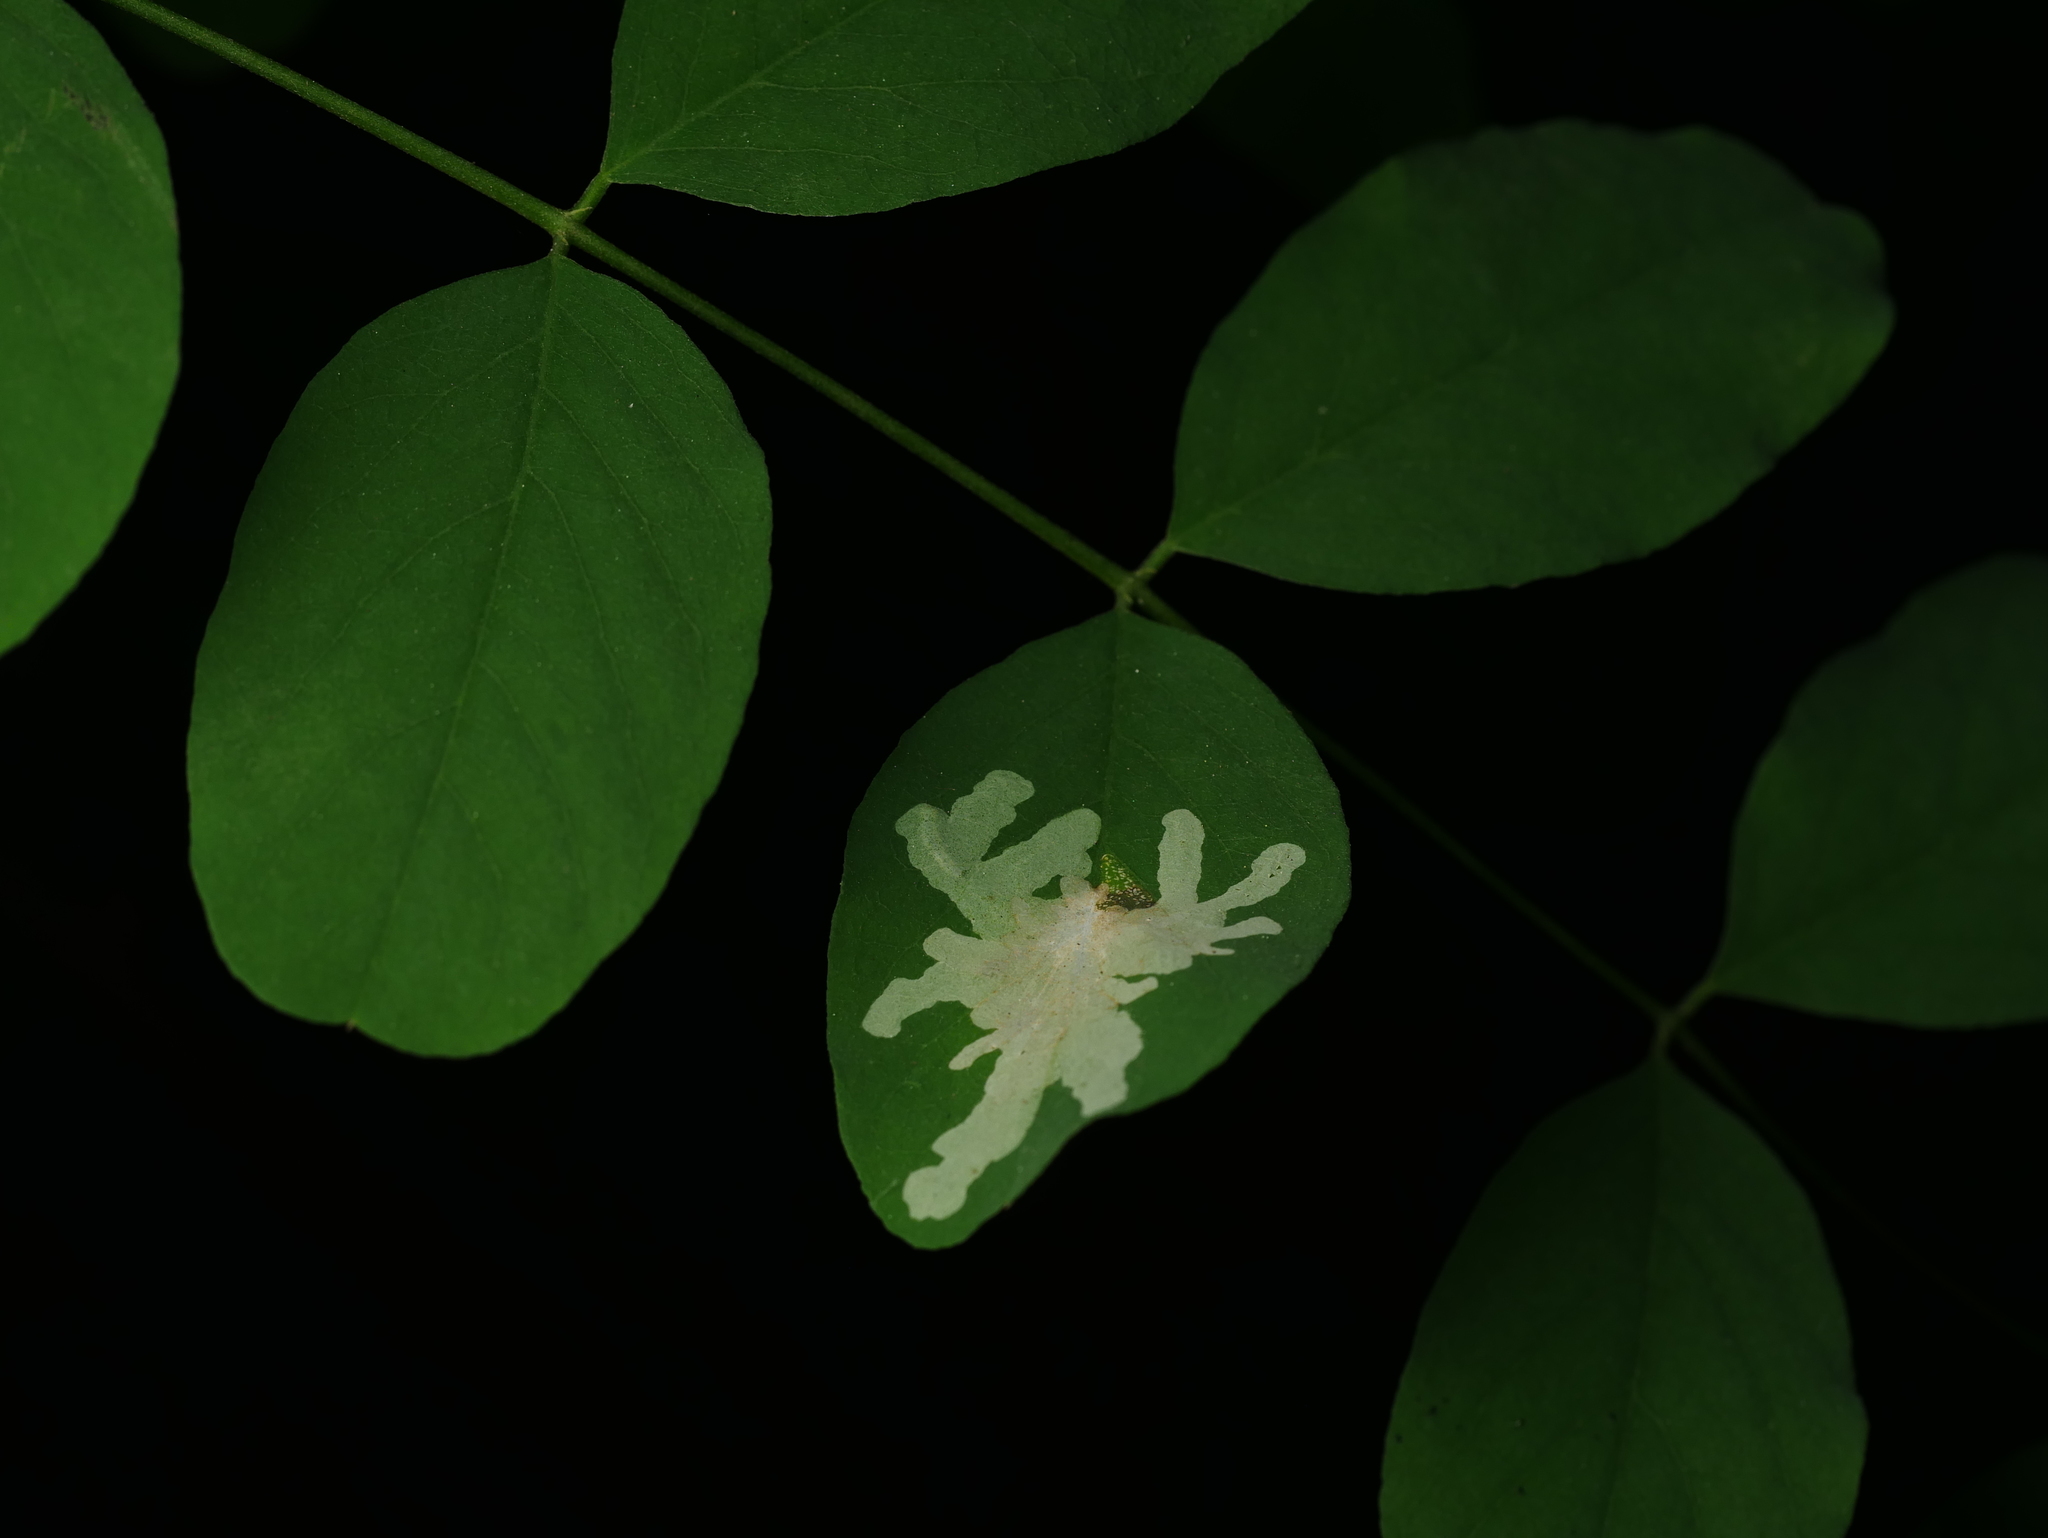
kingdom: Animalia
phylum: Arthropoda
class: Insecta
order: Lepidoptera
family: Gracillariidae
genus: Parectopa
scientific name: Parectopa robiniella
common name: Locust digitate leafminer
